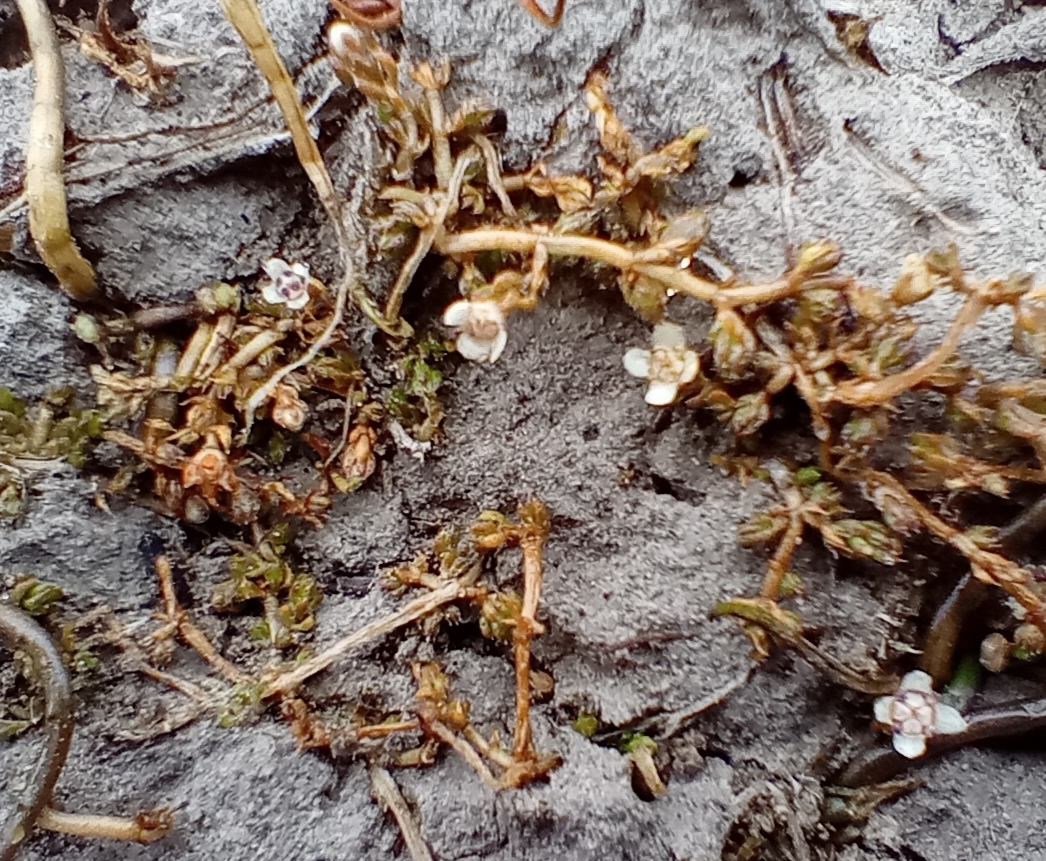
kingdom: Plantae
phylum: Tracheophyta
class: Magnoliopsida
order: Saxifragales
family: Crassulaceae
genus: Crassula
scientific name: Crassula sinclairii
